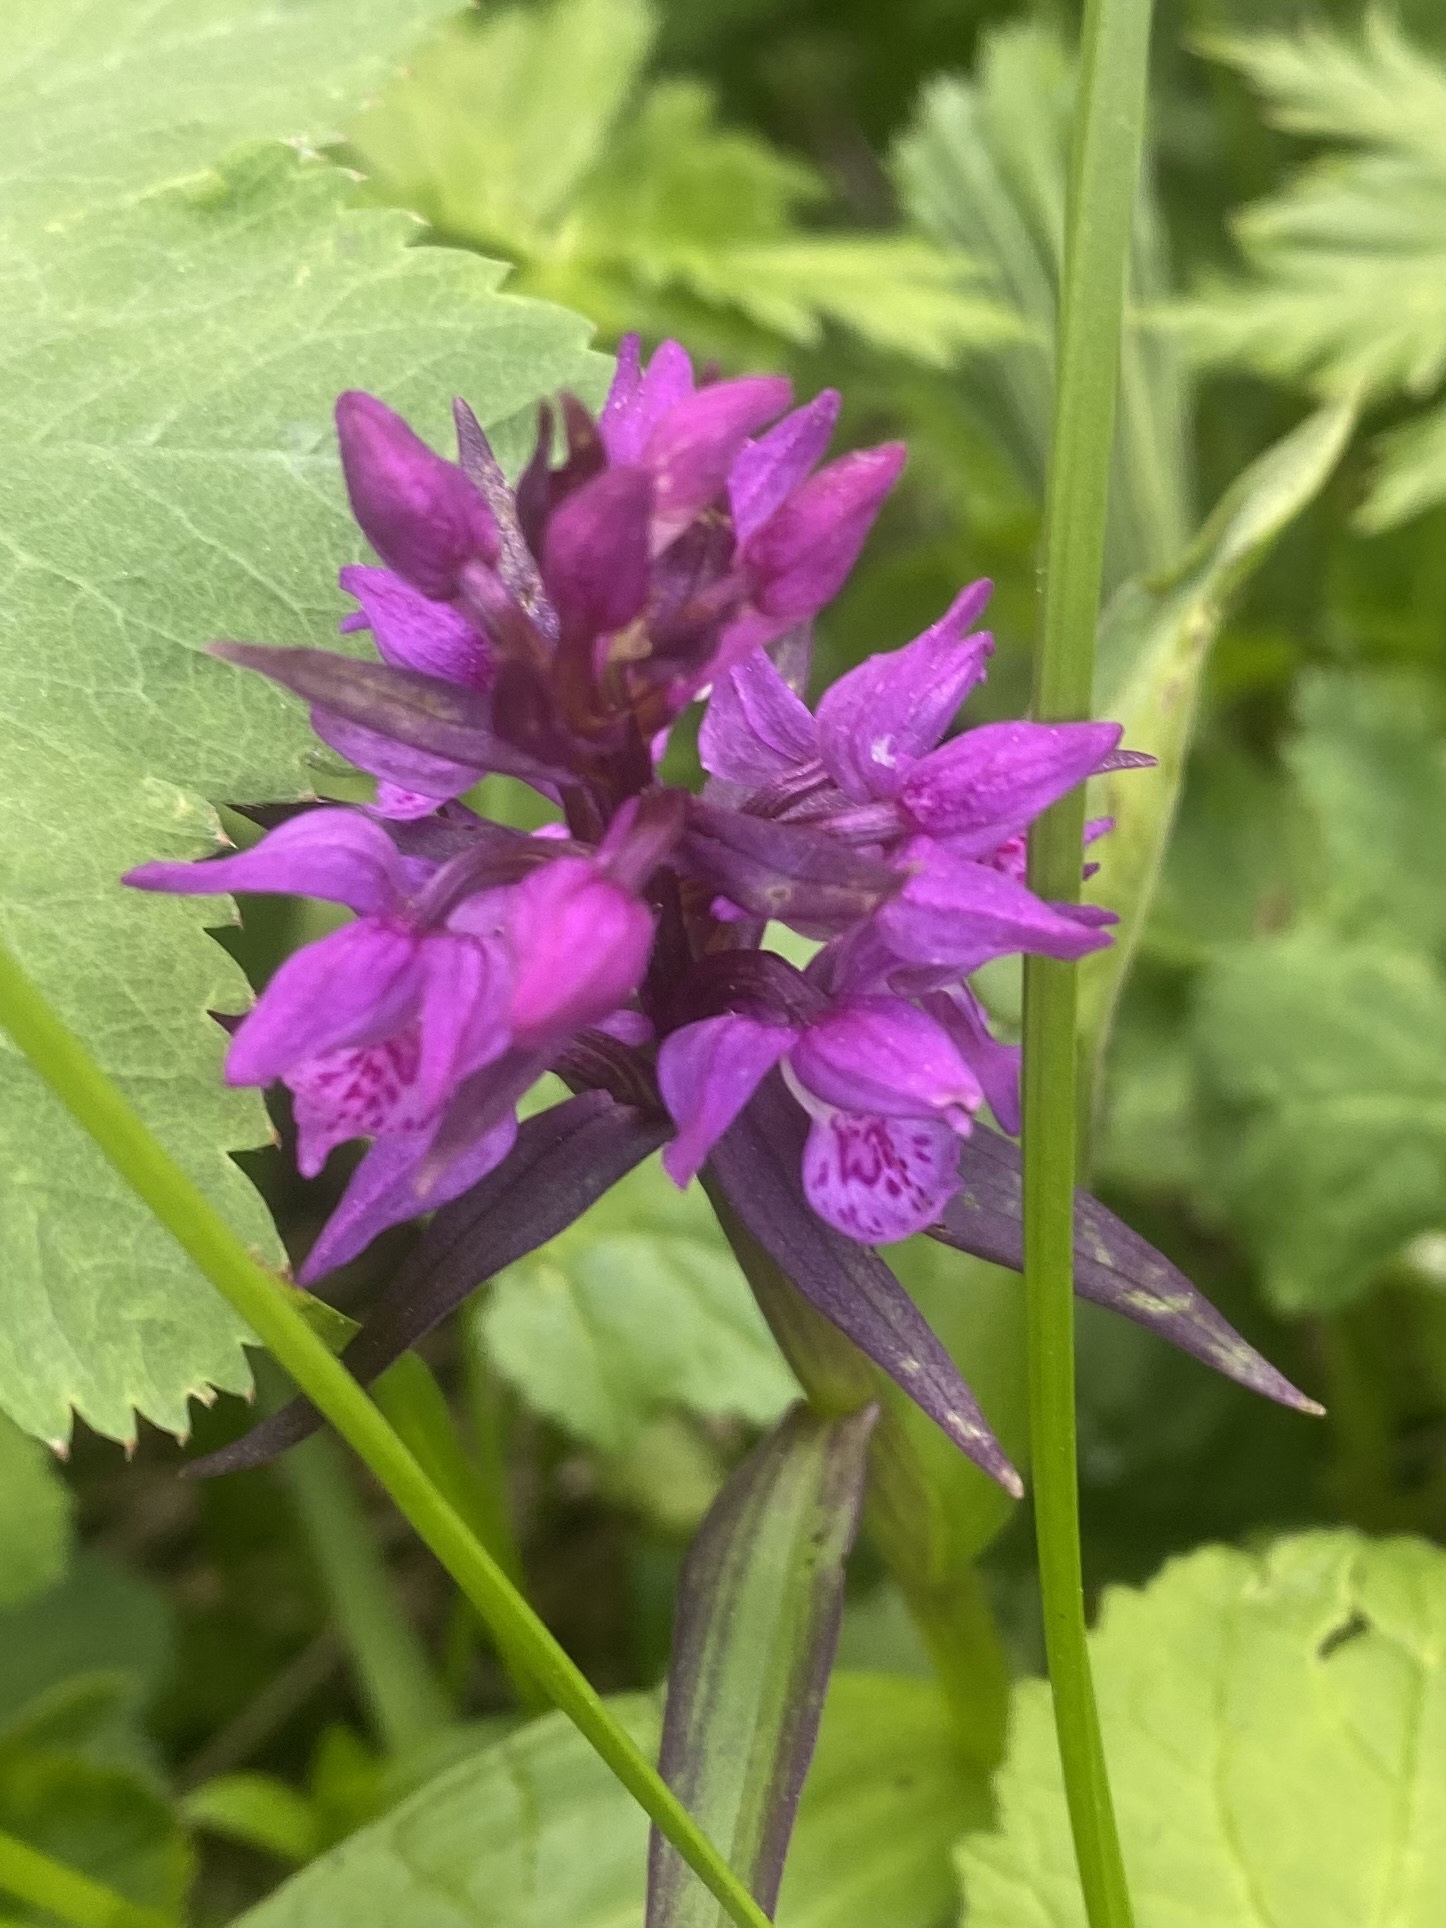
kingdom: Plantae
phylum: Tracheophyta
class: Liliopsida
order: Asparagales
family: Orchidaceae
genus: Dactylorhiza
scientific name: Dactylorhiza euxina
